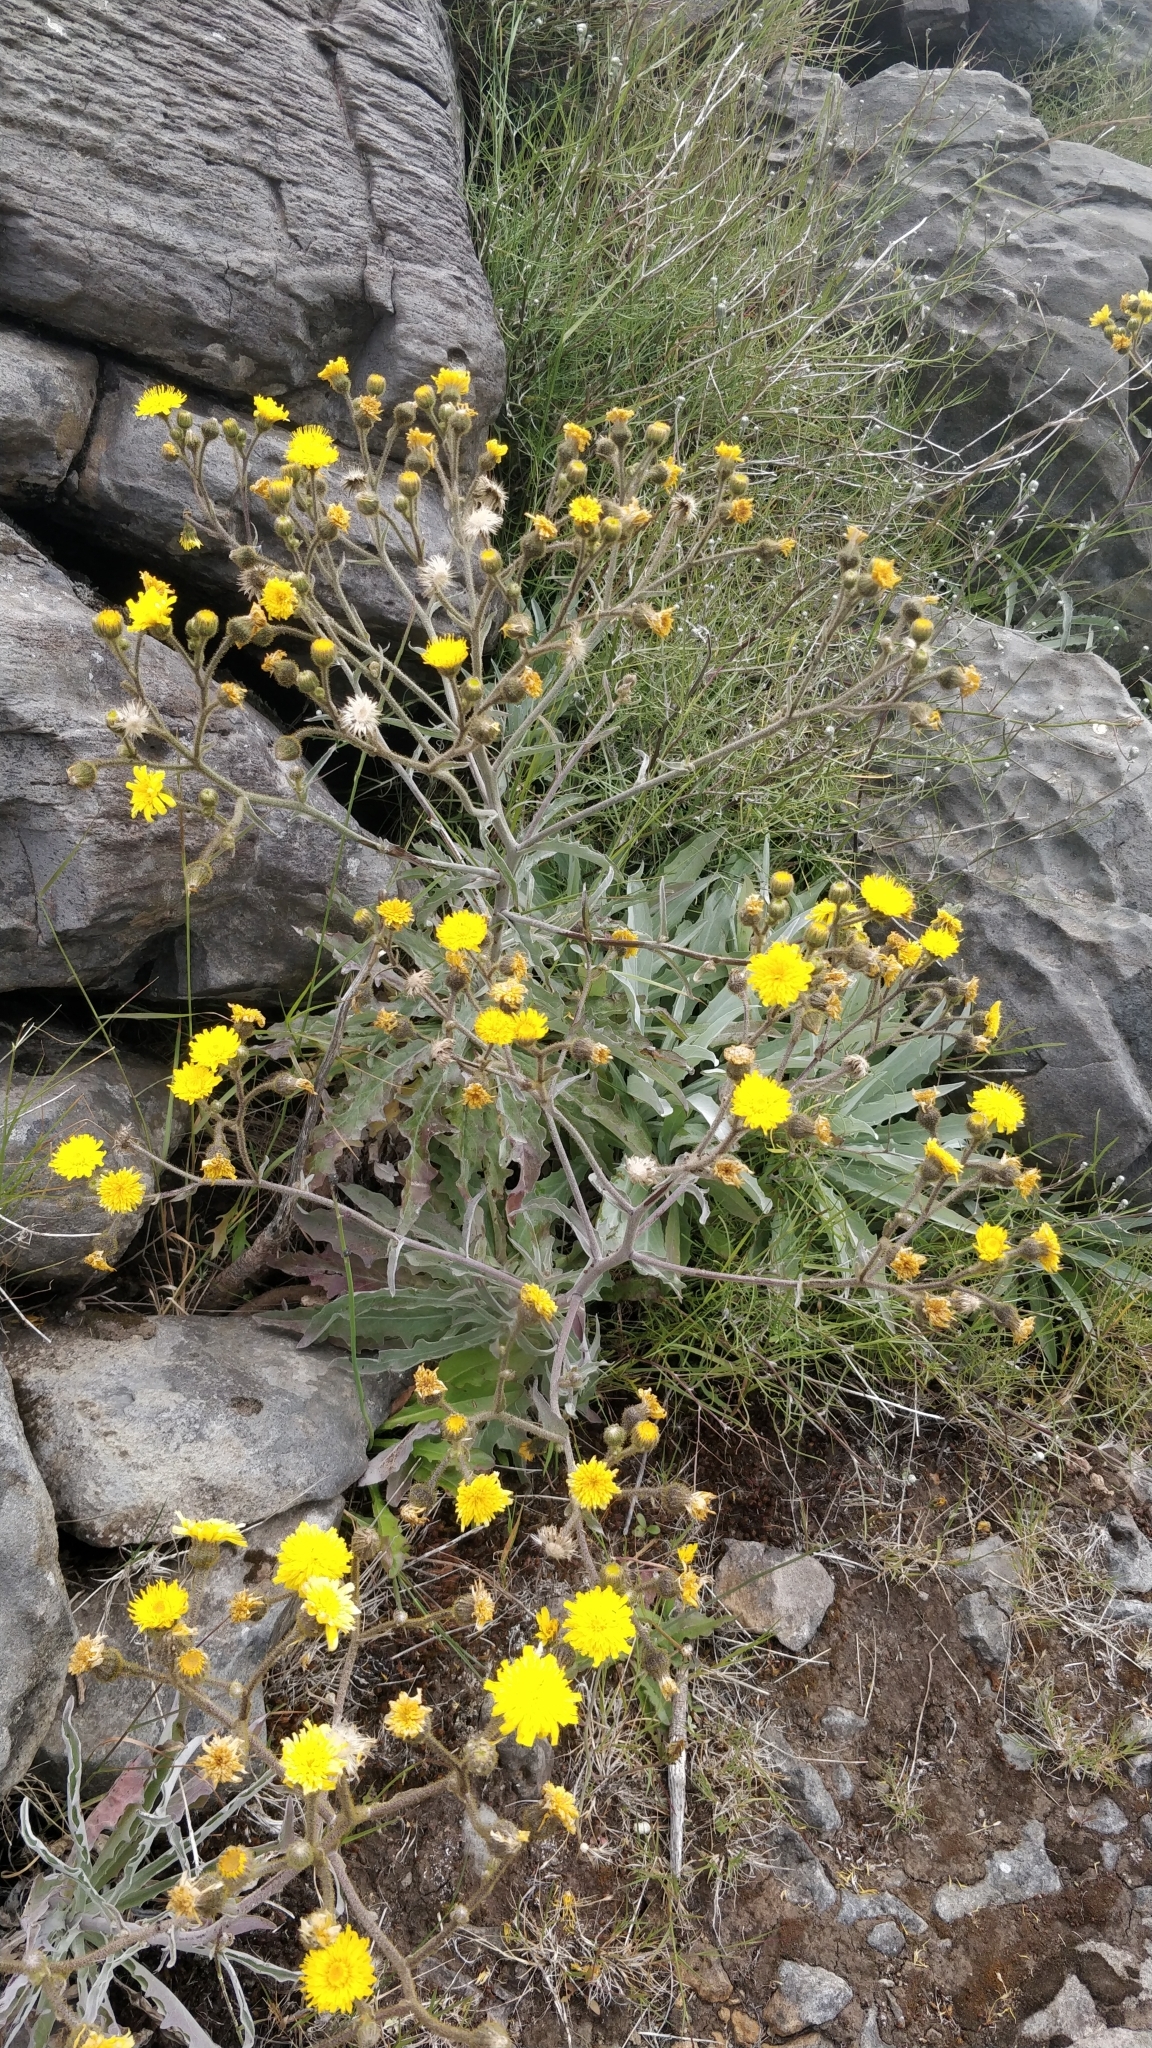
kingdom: Plantae
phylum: Tracheophyta
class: Magnoliopsida
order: Asterales
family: Asteraceae
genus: Andryala
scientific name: Andryala glandulosa
